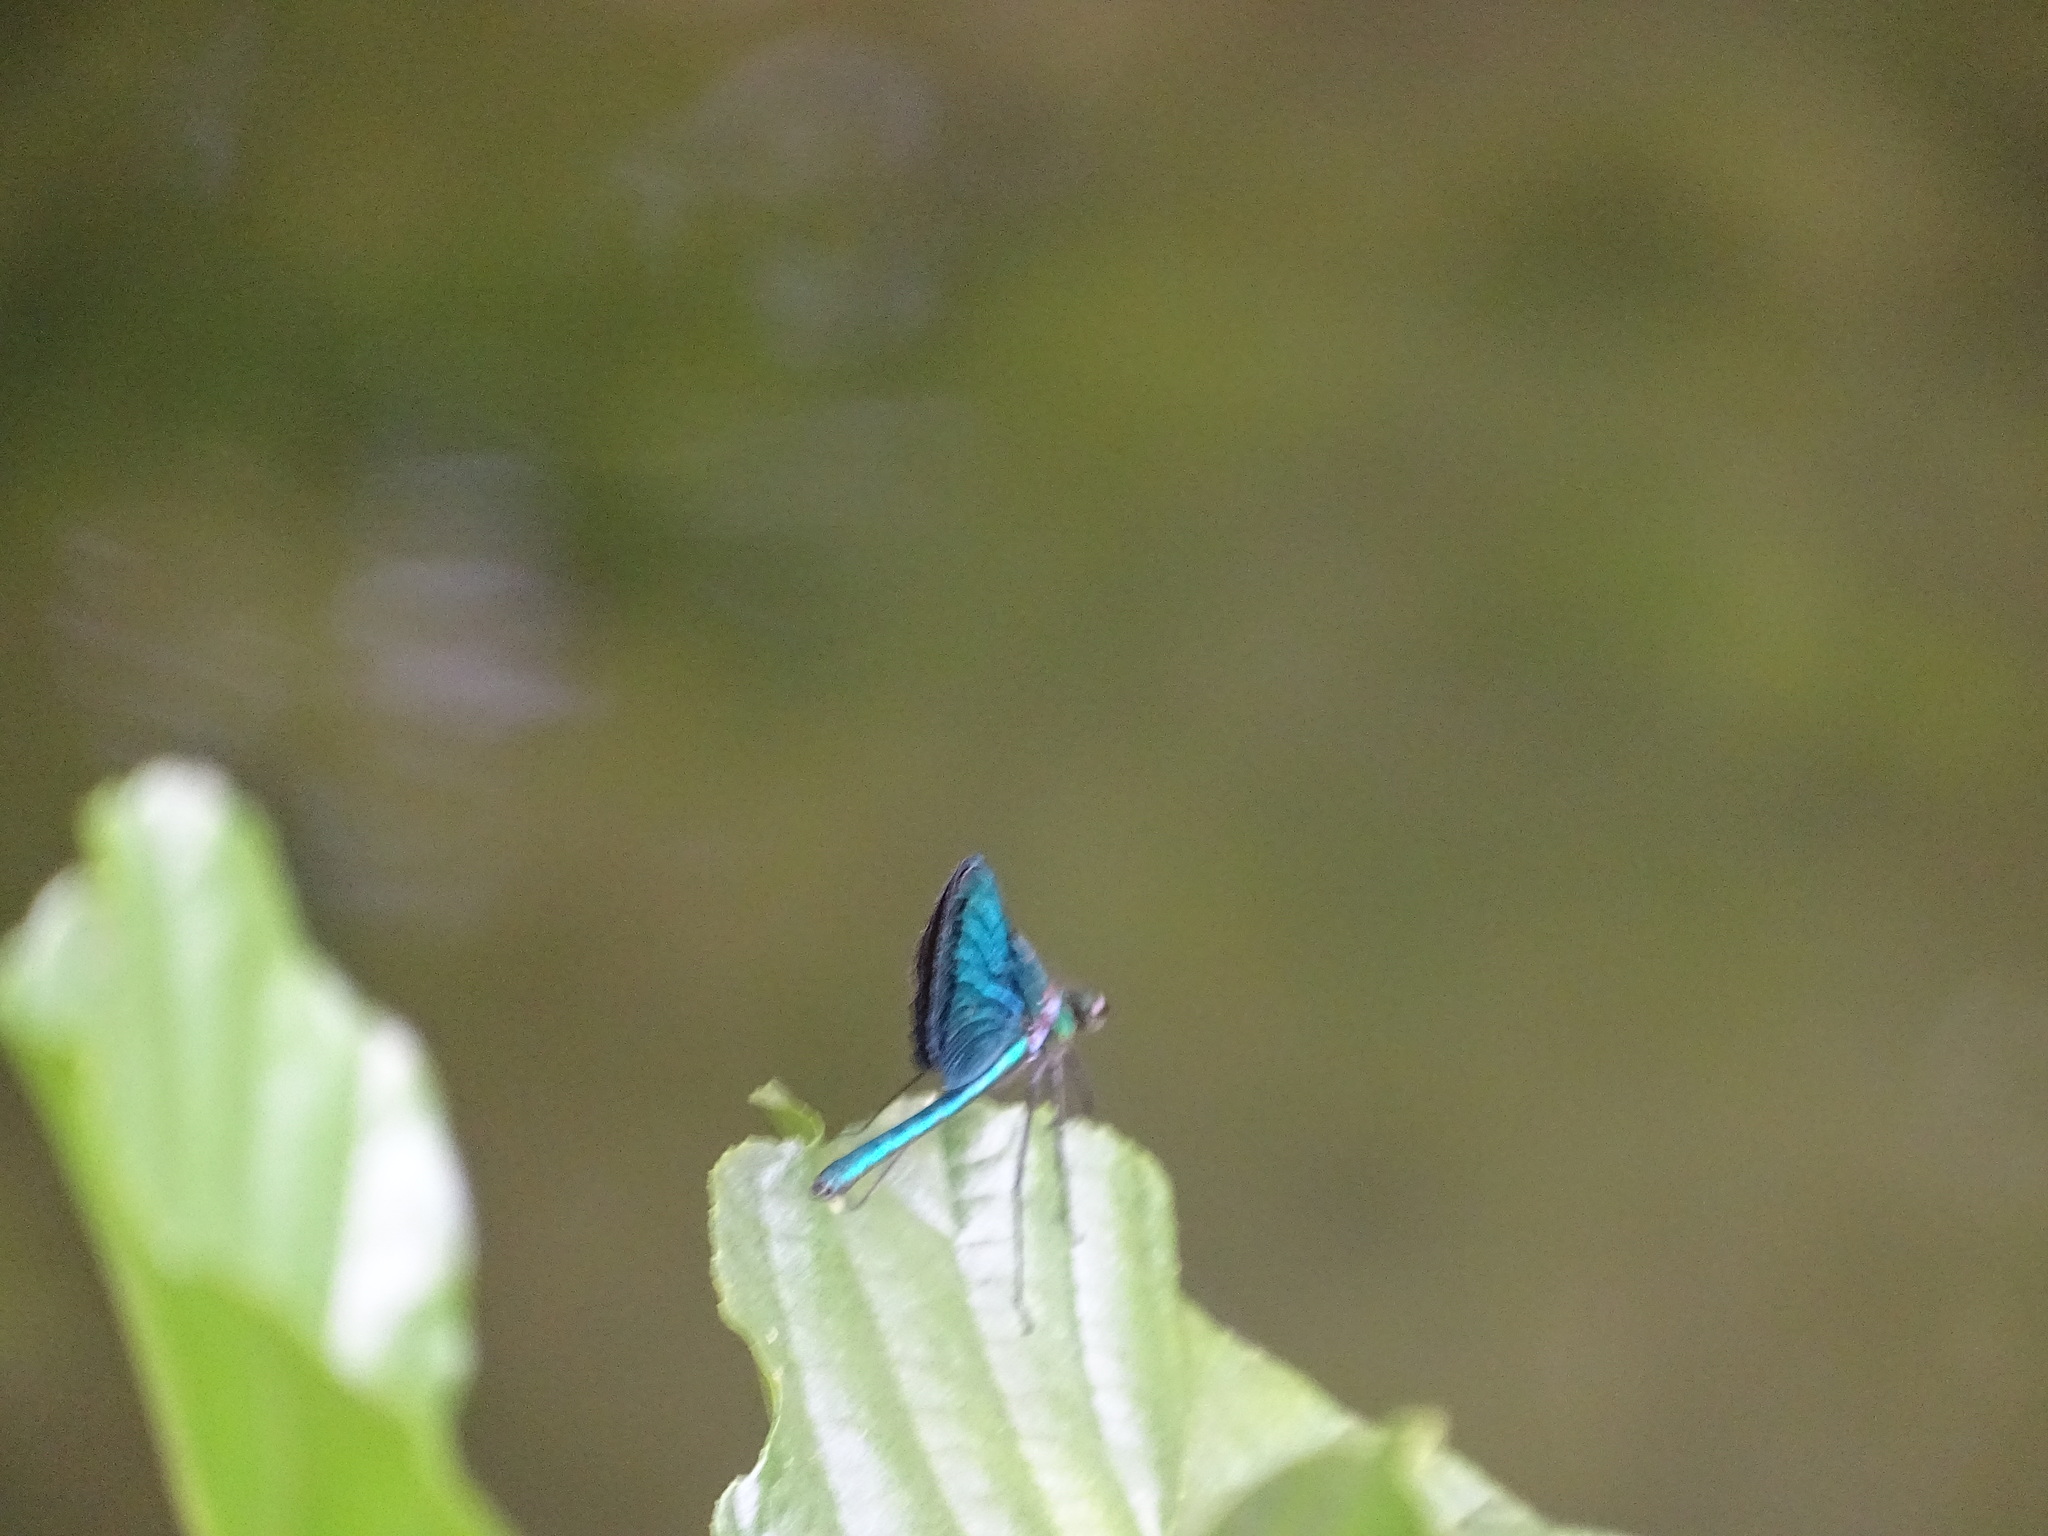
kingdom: Animalia
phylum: Arthropoda
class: Insecta
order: Odonata
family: Calopterygidae
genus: Calopteryx
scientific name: Calopteryx virgo
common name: Beautiful demoiselle
